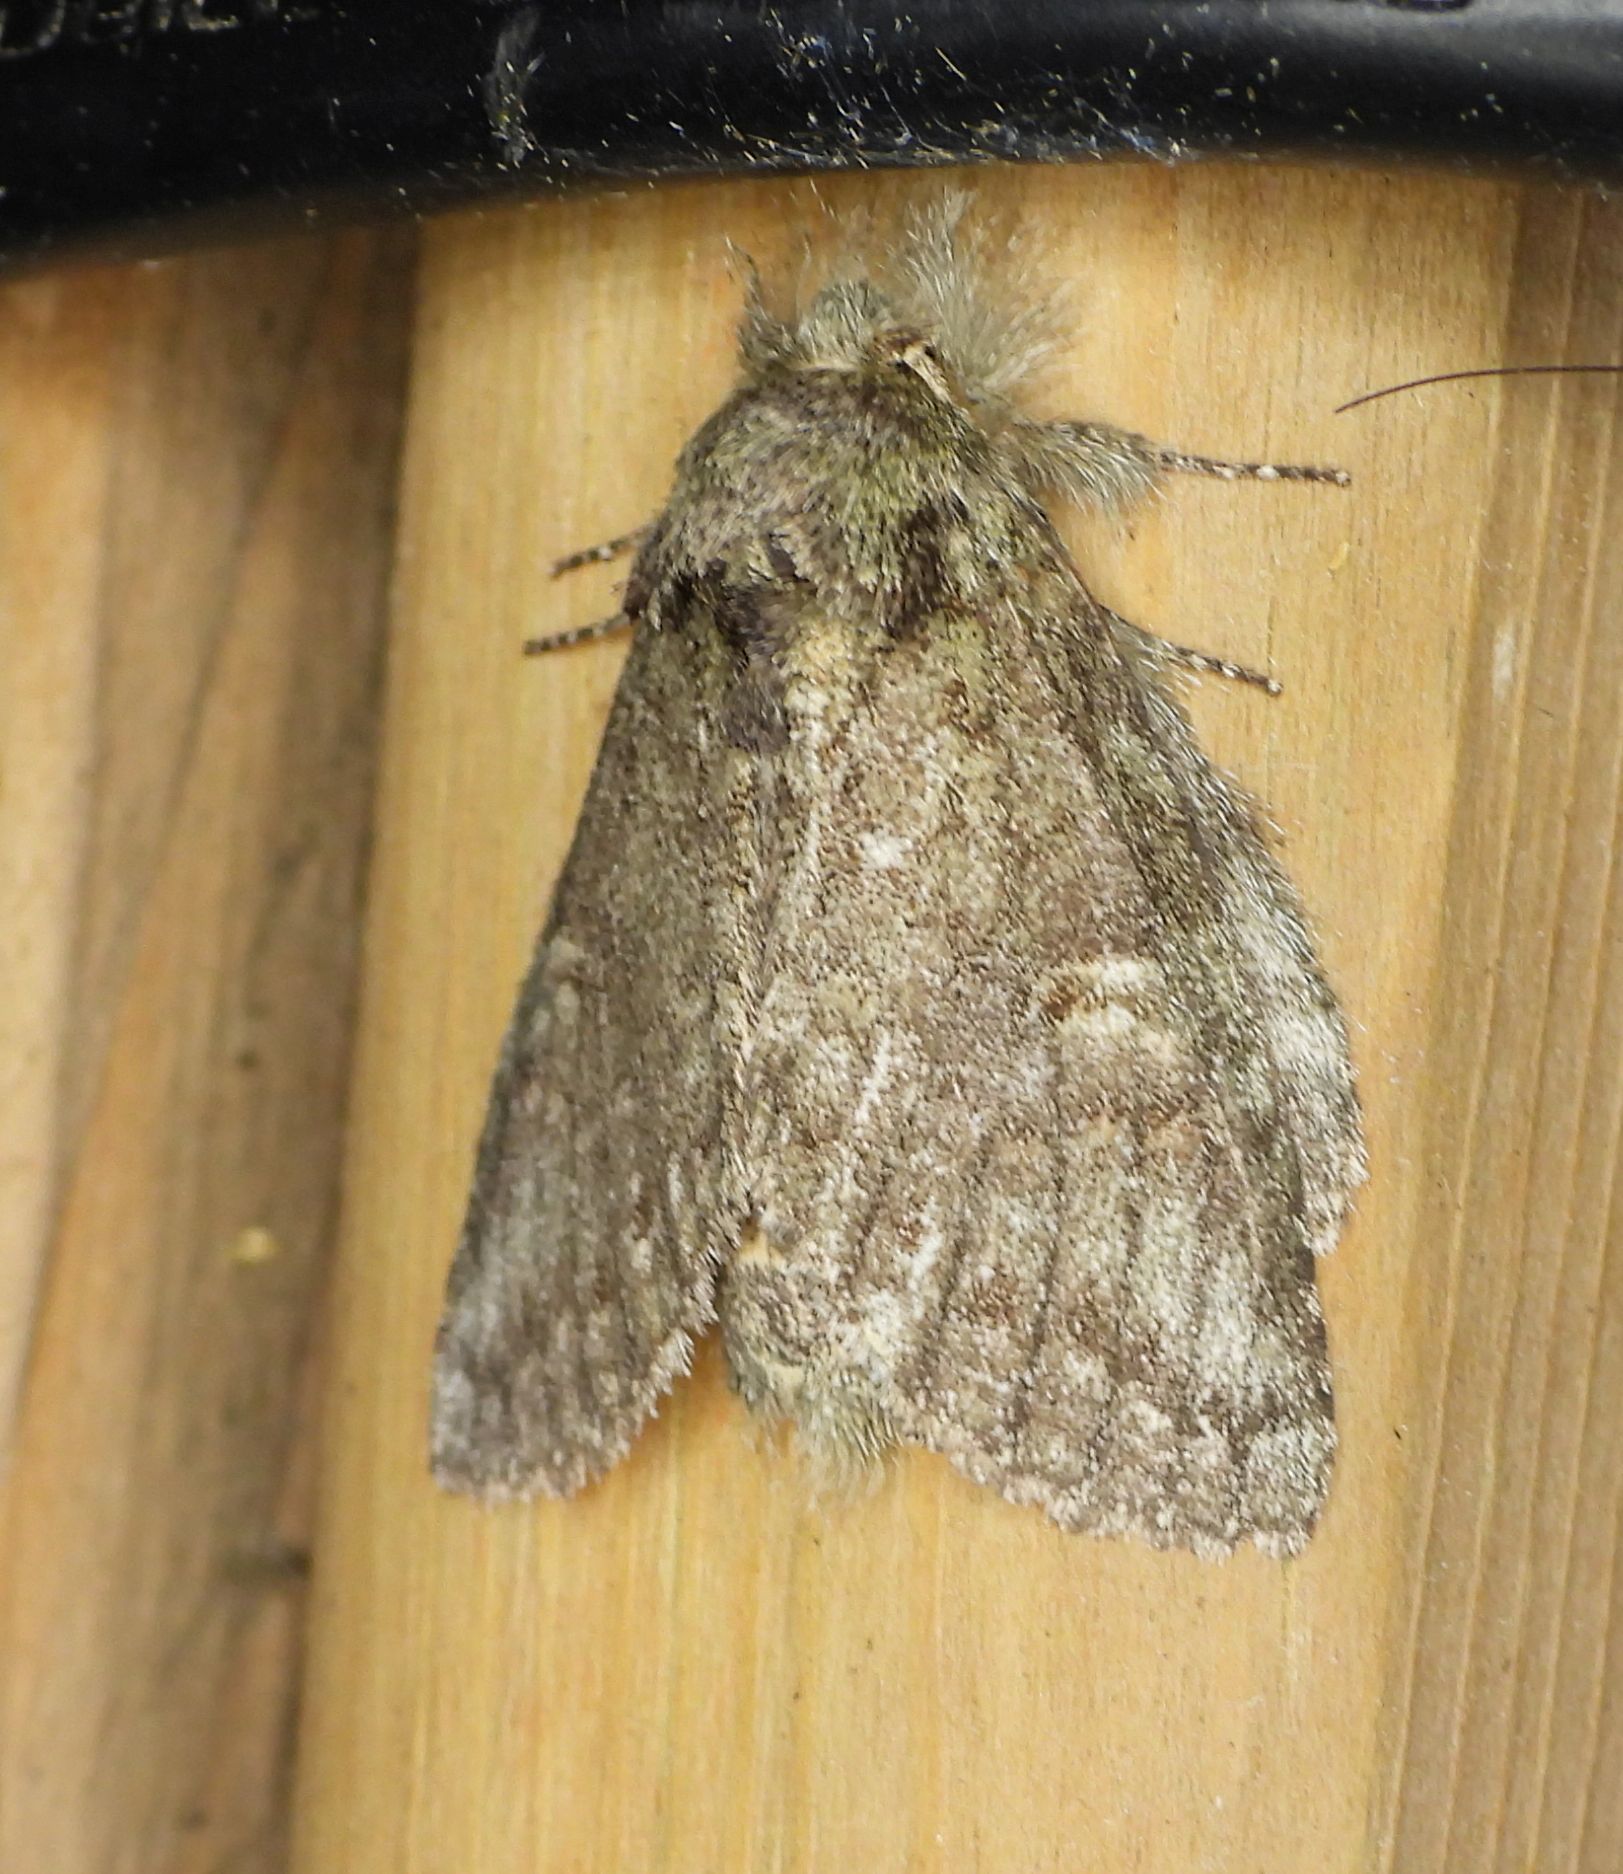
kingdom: Animalia
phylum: Arthropoda
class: Insecta
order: Lepidoptera
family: Notodontidae
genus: Disphragis
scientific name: Disphragis Cecrita guttivitta
